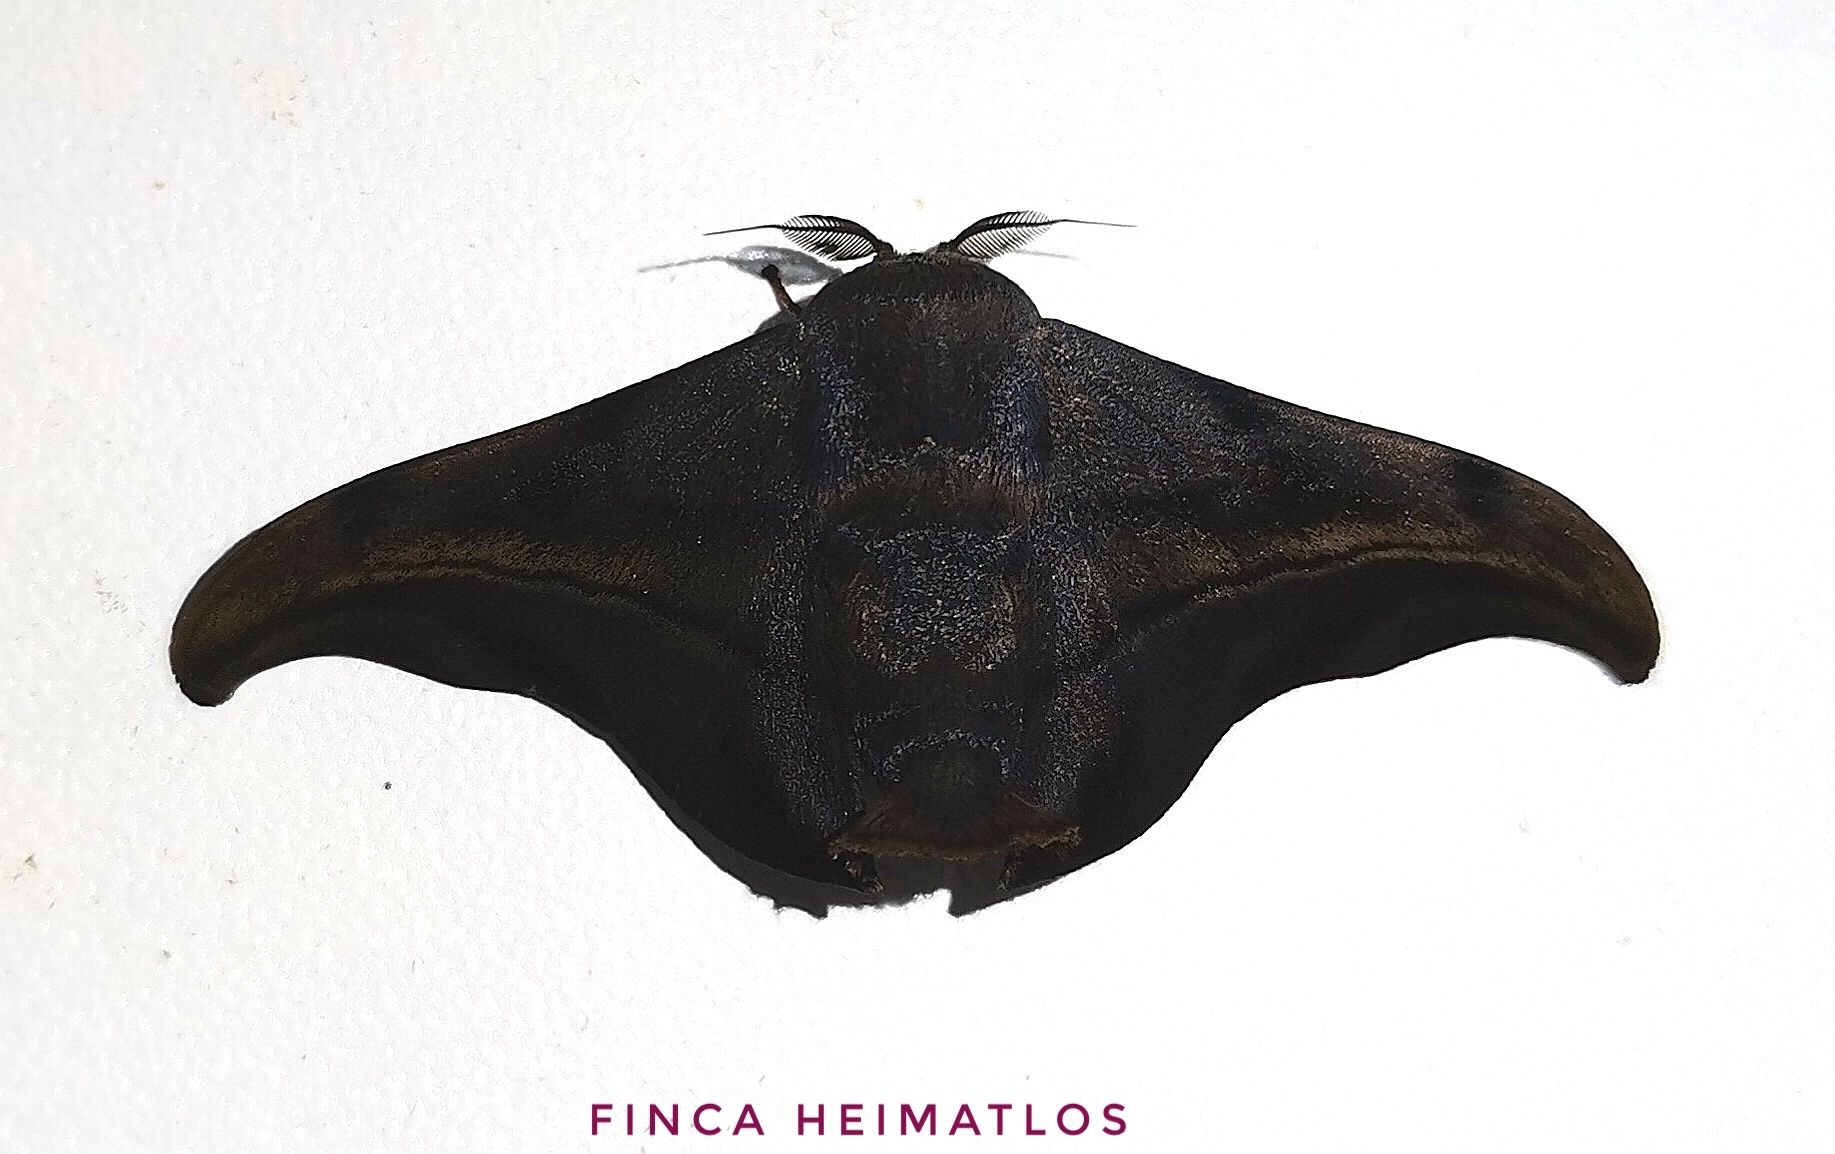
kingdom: Animalia
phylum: Arthropoda
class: Insecta
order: Lepidoptera
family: Mimallonidae
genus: Thaelia
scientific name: Thaelia subrubiginosa
